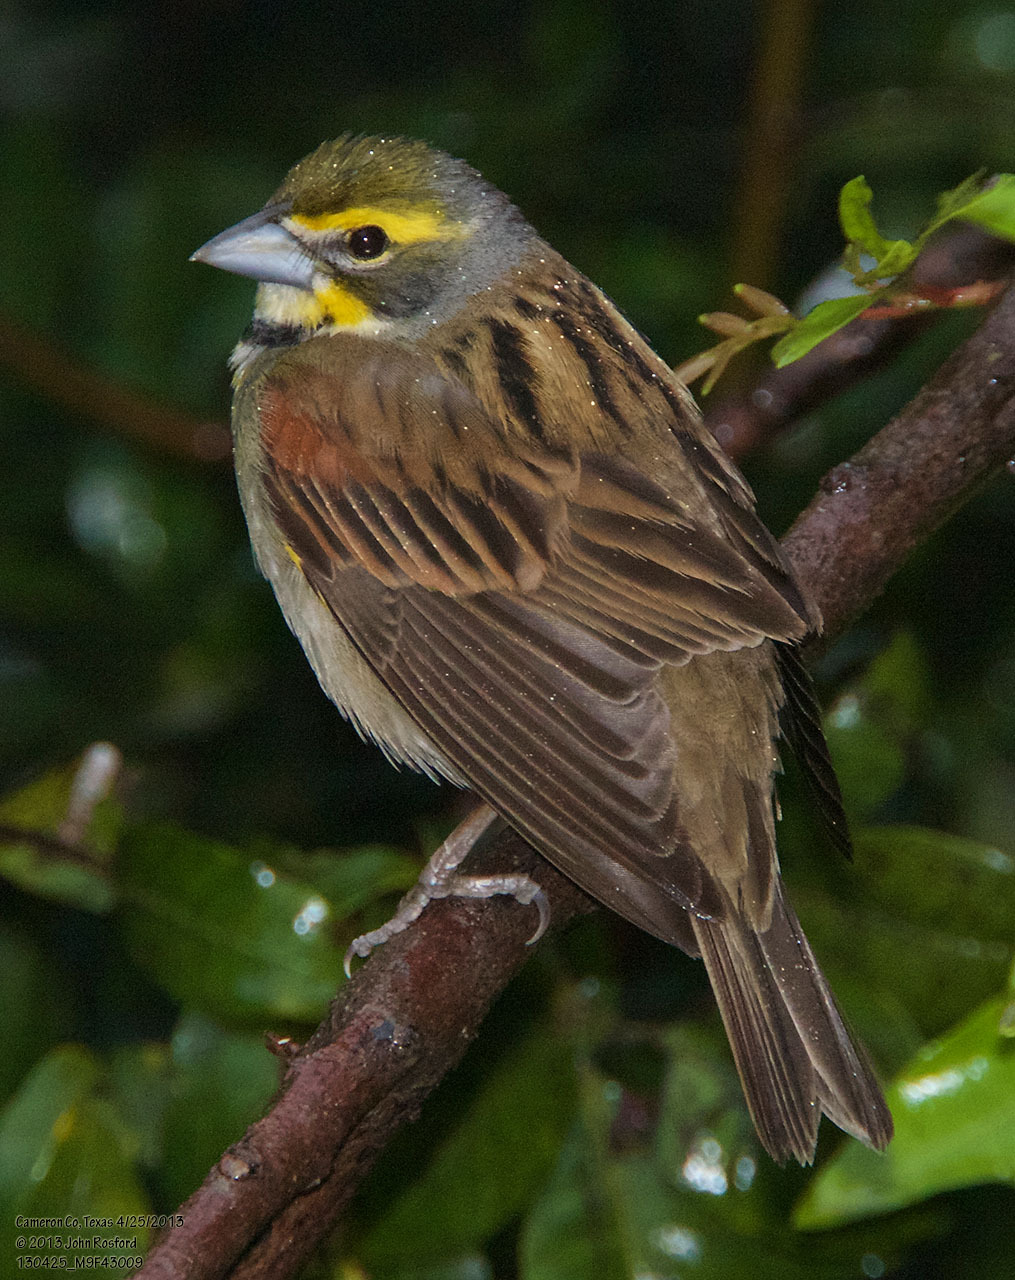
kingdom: Animalia
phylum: Chordata
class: Aves
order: Passeriformes
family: Cardinalidae
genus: Spiza
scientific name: Spiza americana
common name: Dickcissel
